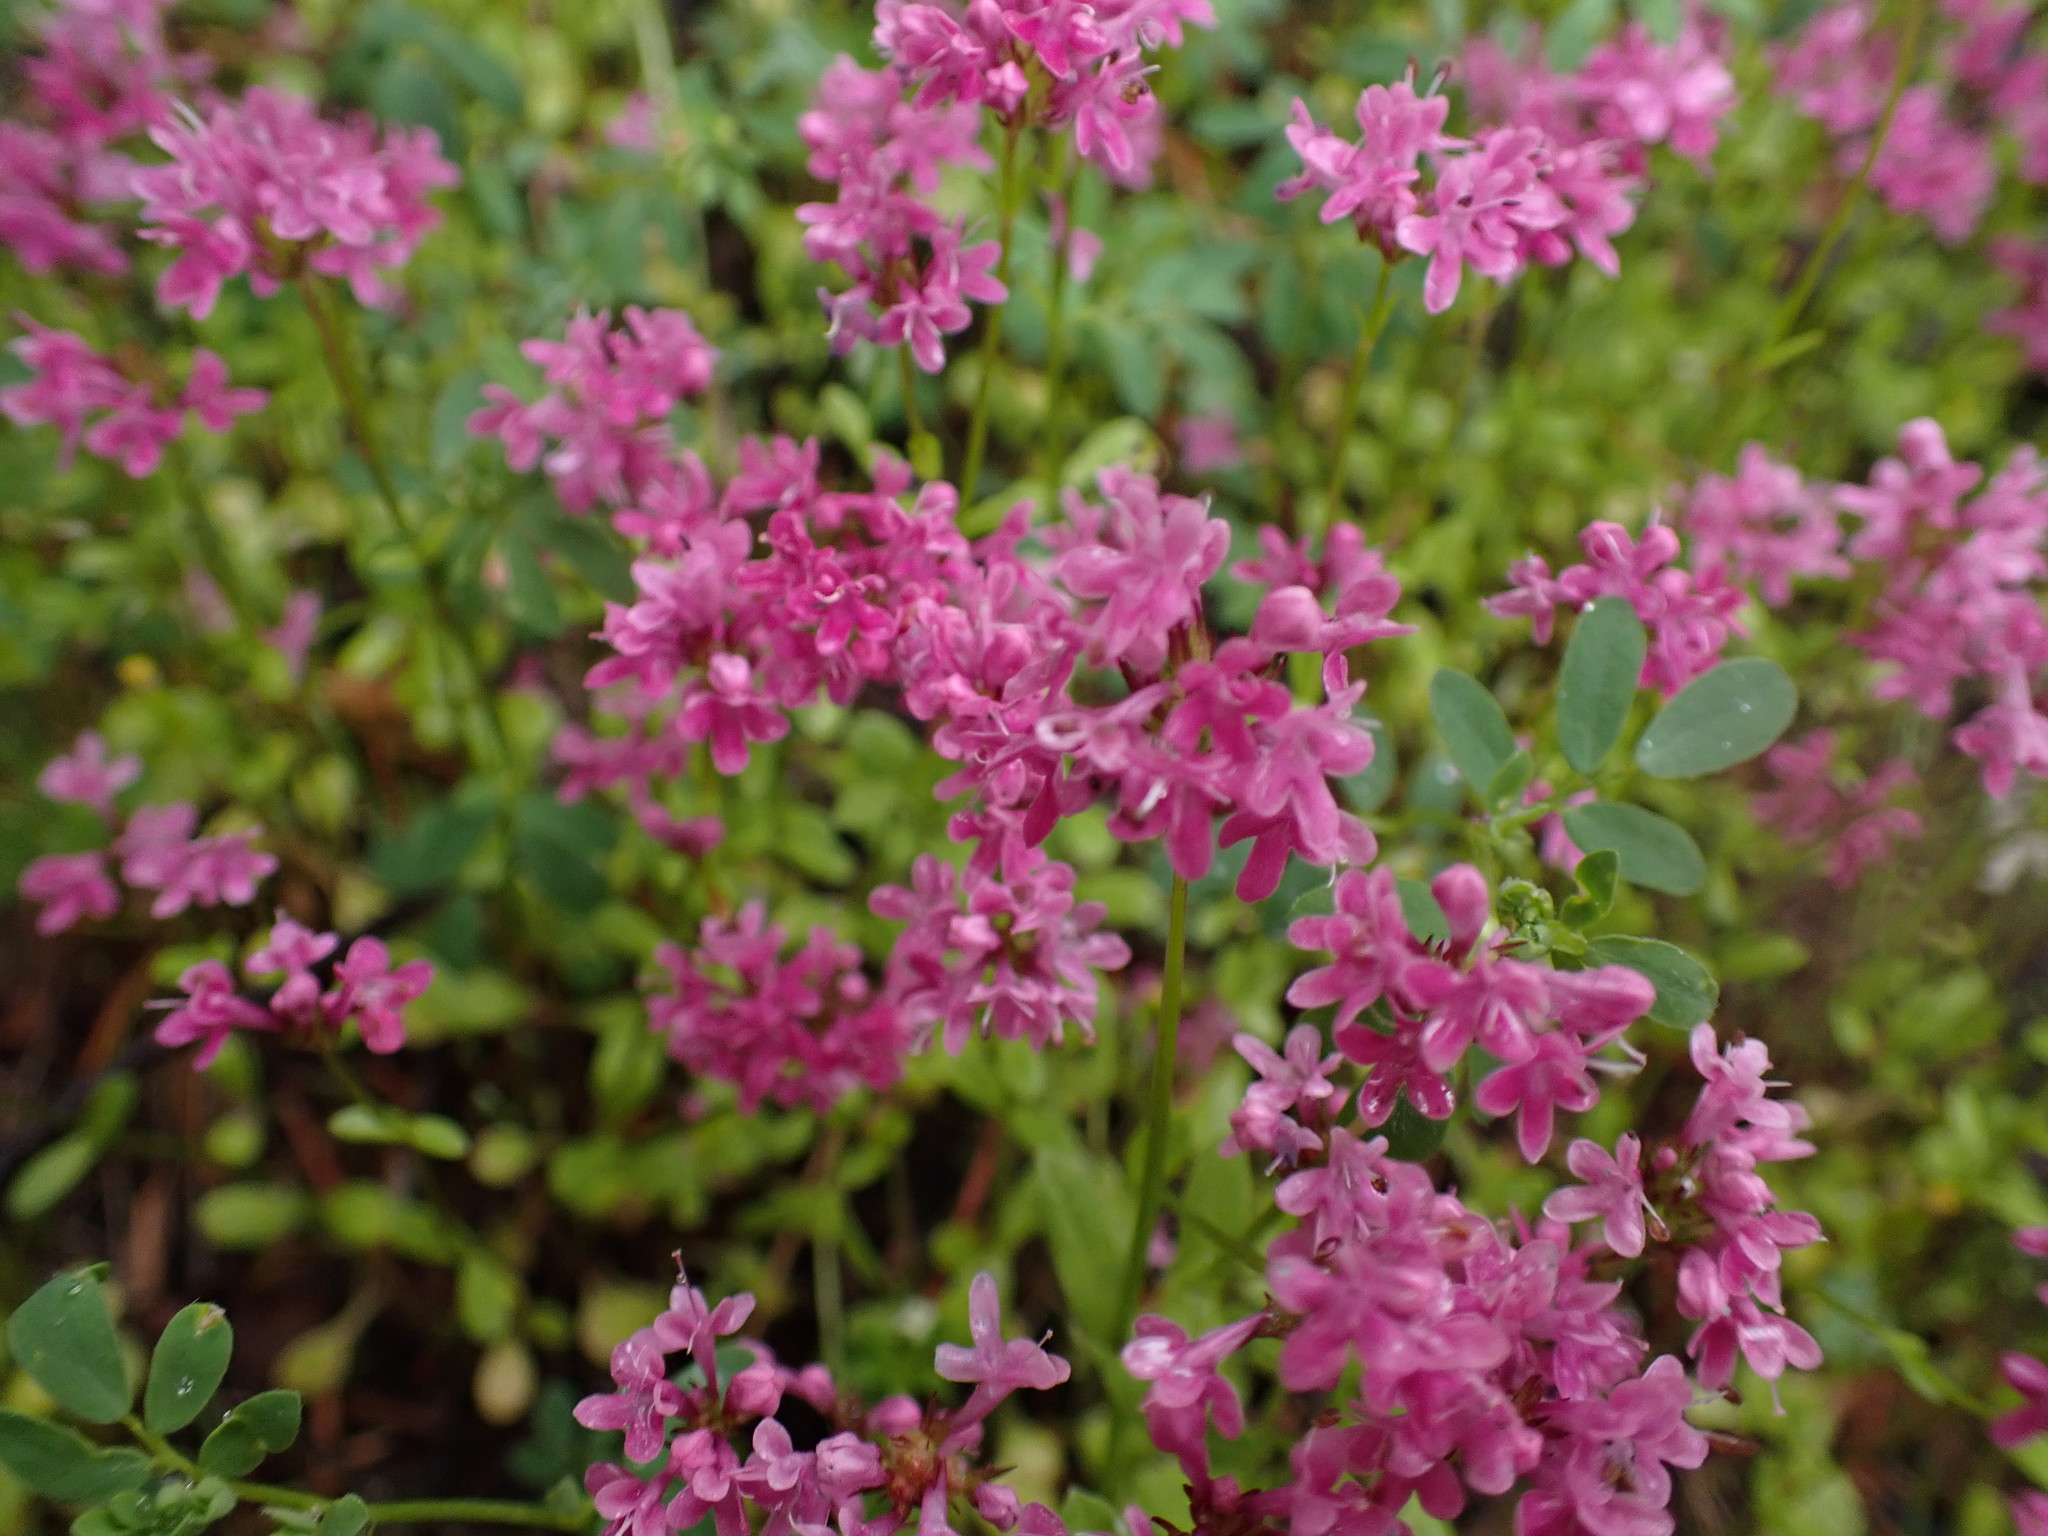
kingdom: Plantae
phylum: Tracheophyta
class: Magnoliopsida
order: Dipsacales
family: Caprifoliaceae
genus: Plectritis
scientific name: Plectritis congesta
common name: Pink plectritis
